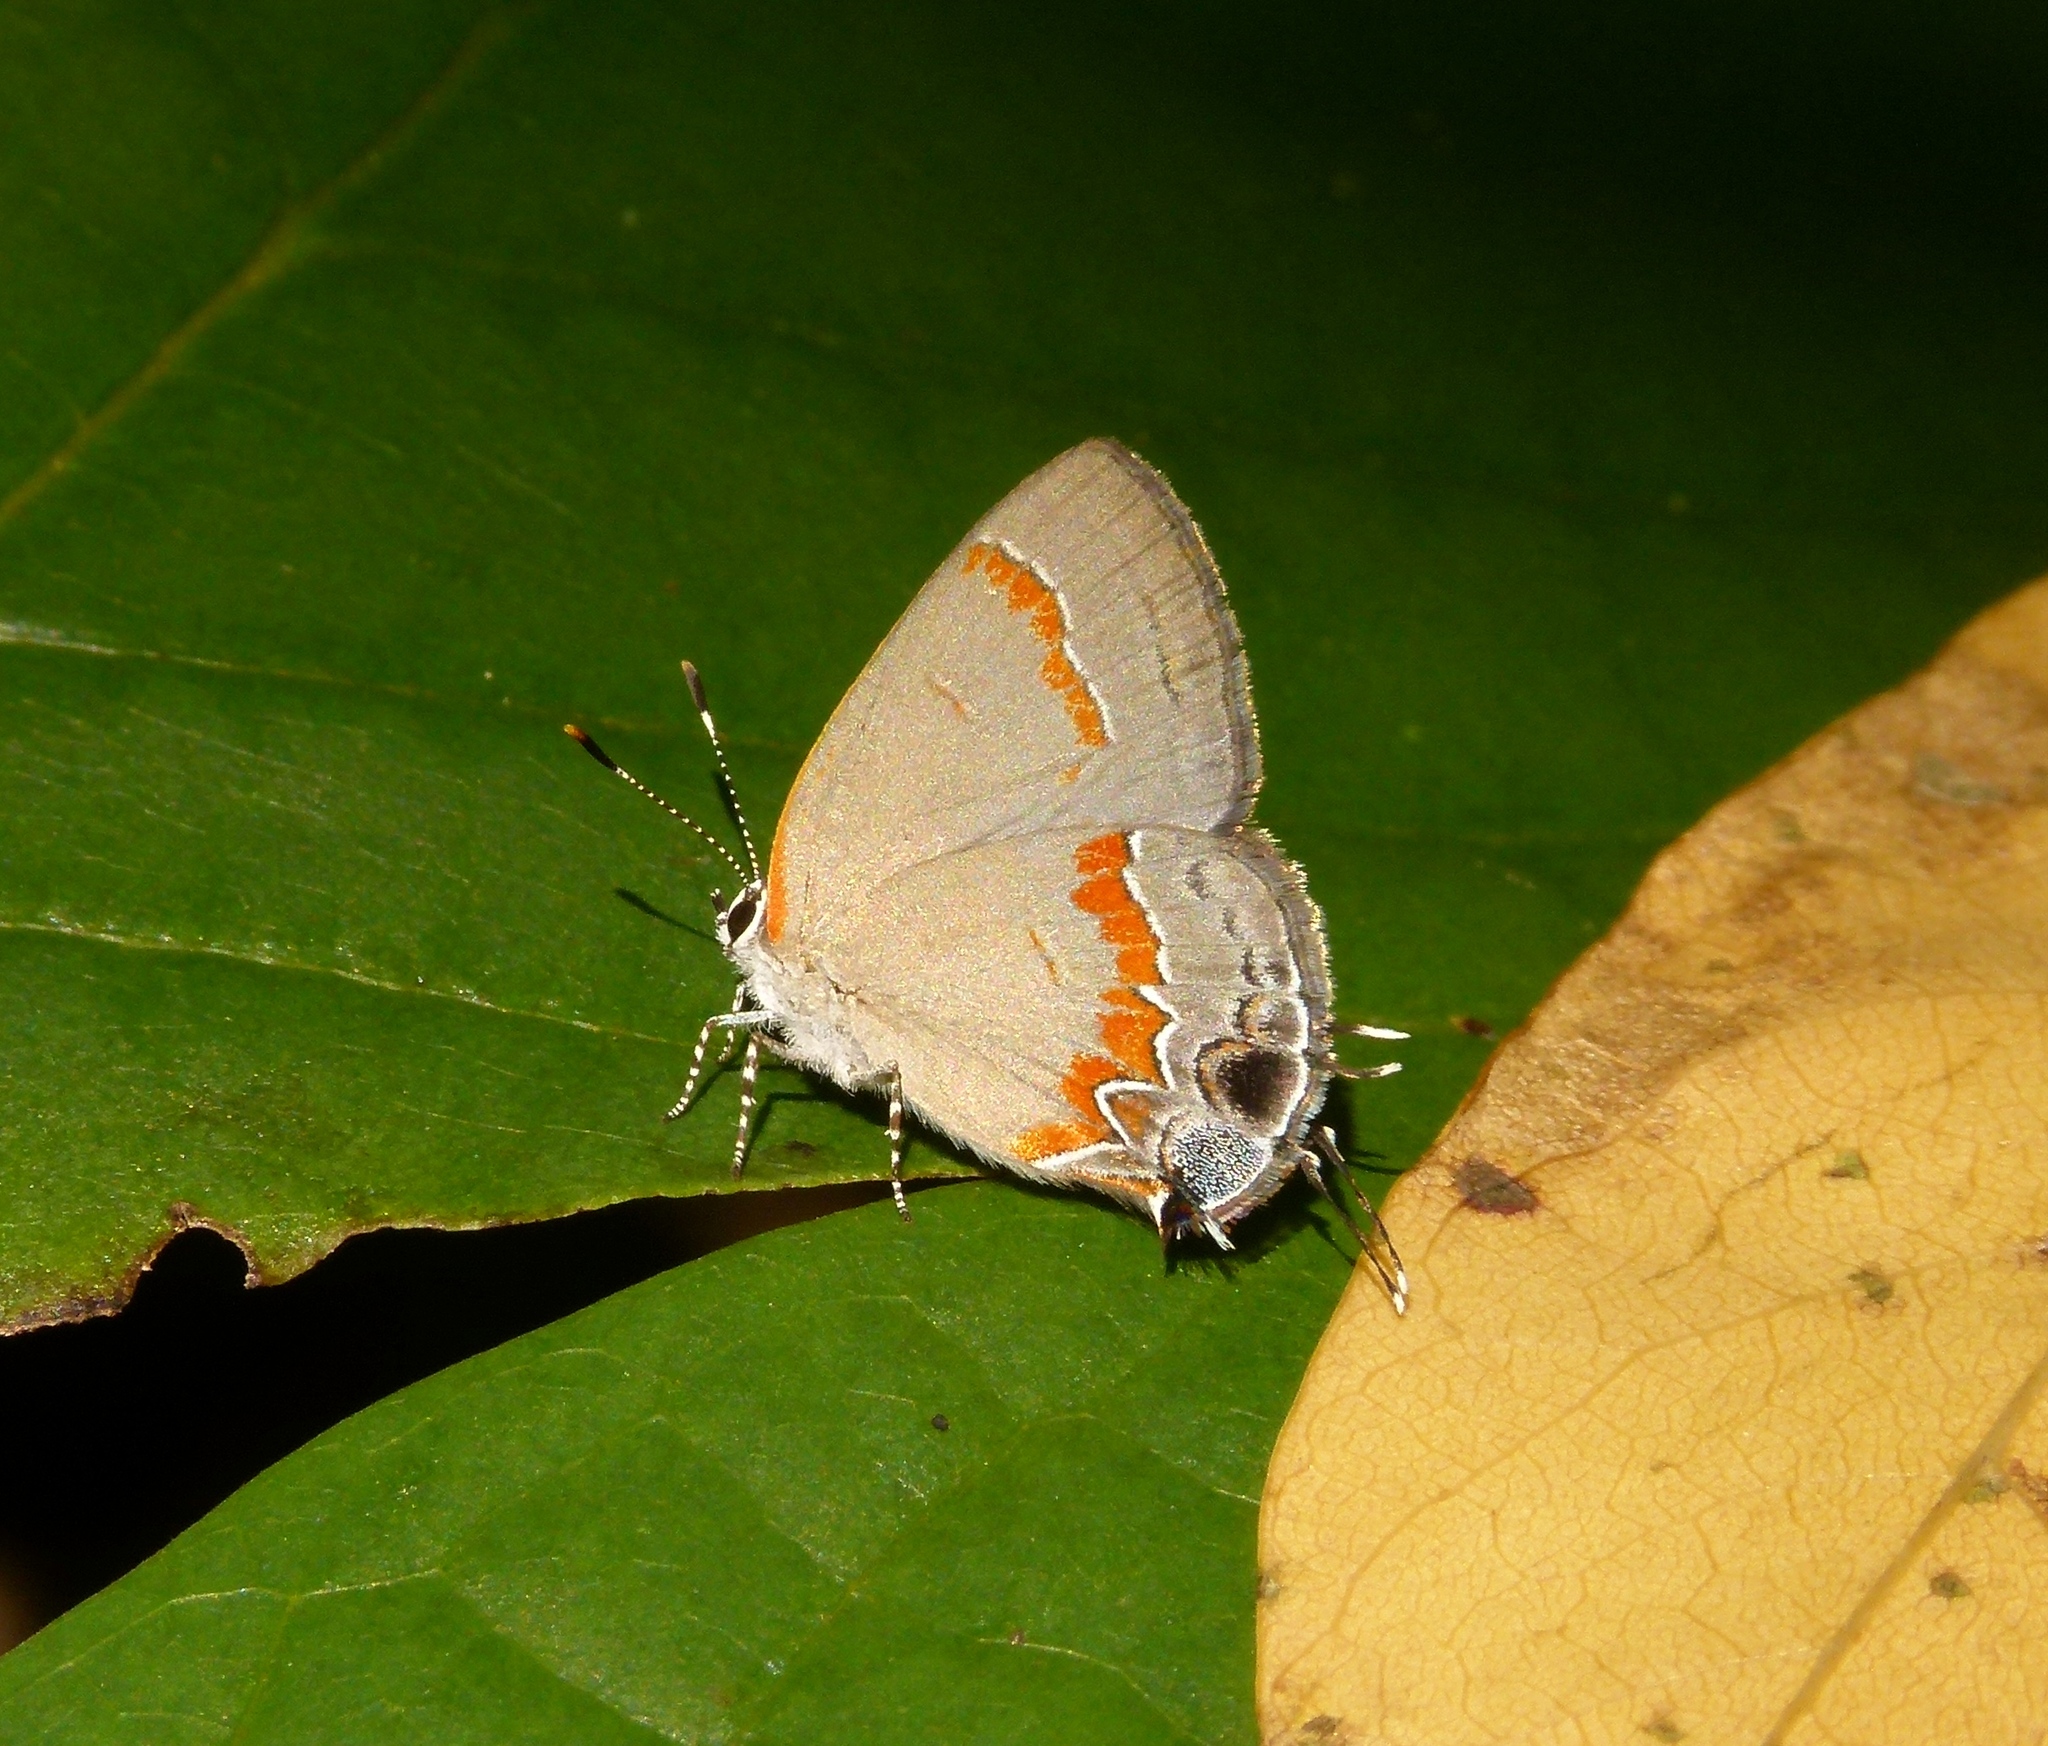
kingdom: Animalia
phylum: Arthropoda
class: Insecta
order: Lepidoptera
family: Lycaenidae
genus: Calycopis
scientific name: Calycopis cecrops
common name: Red-banded hairstreak
